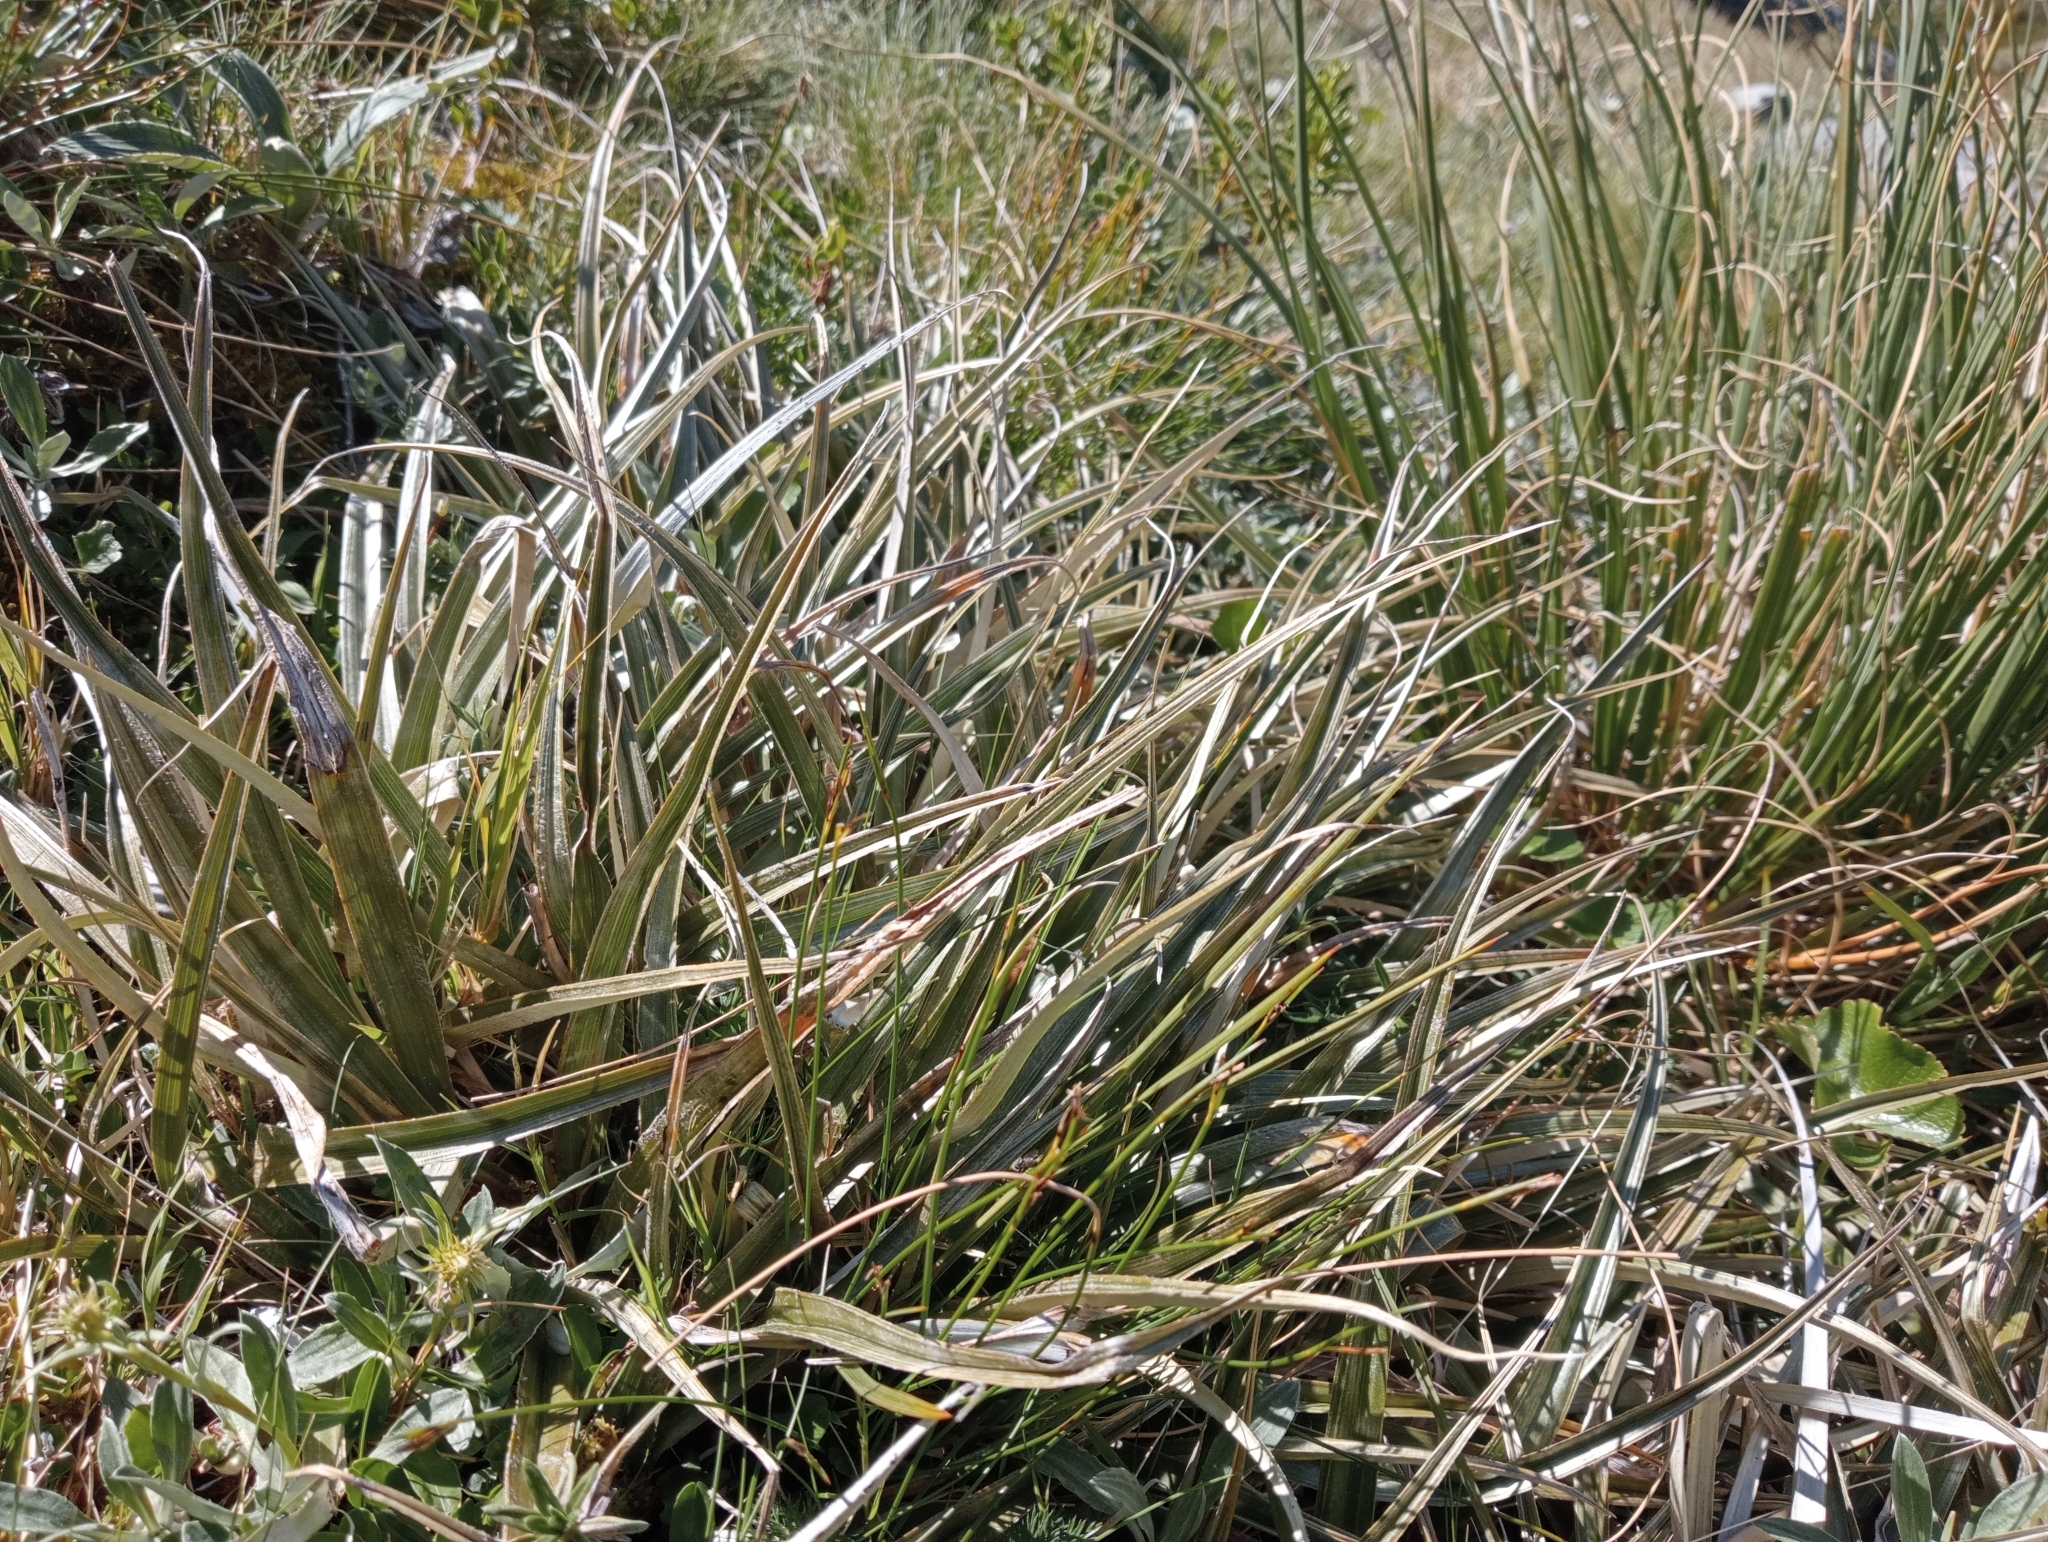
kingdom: Plantae
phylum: Tracheophyta
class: Liliopsida
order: Asparagales
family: Asteliaceae
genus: Astelia
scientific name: Astelia nivicola
